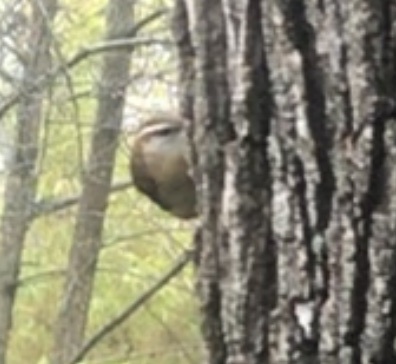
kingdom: Animalia
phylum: Chordata
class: Aves
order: Passeriformes
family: Troglodytidae
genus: Thryothorus
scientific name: Thryothorus ludovicianus
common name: Carolina wren
